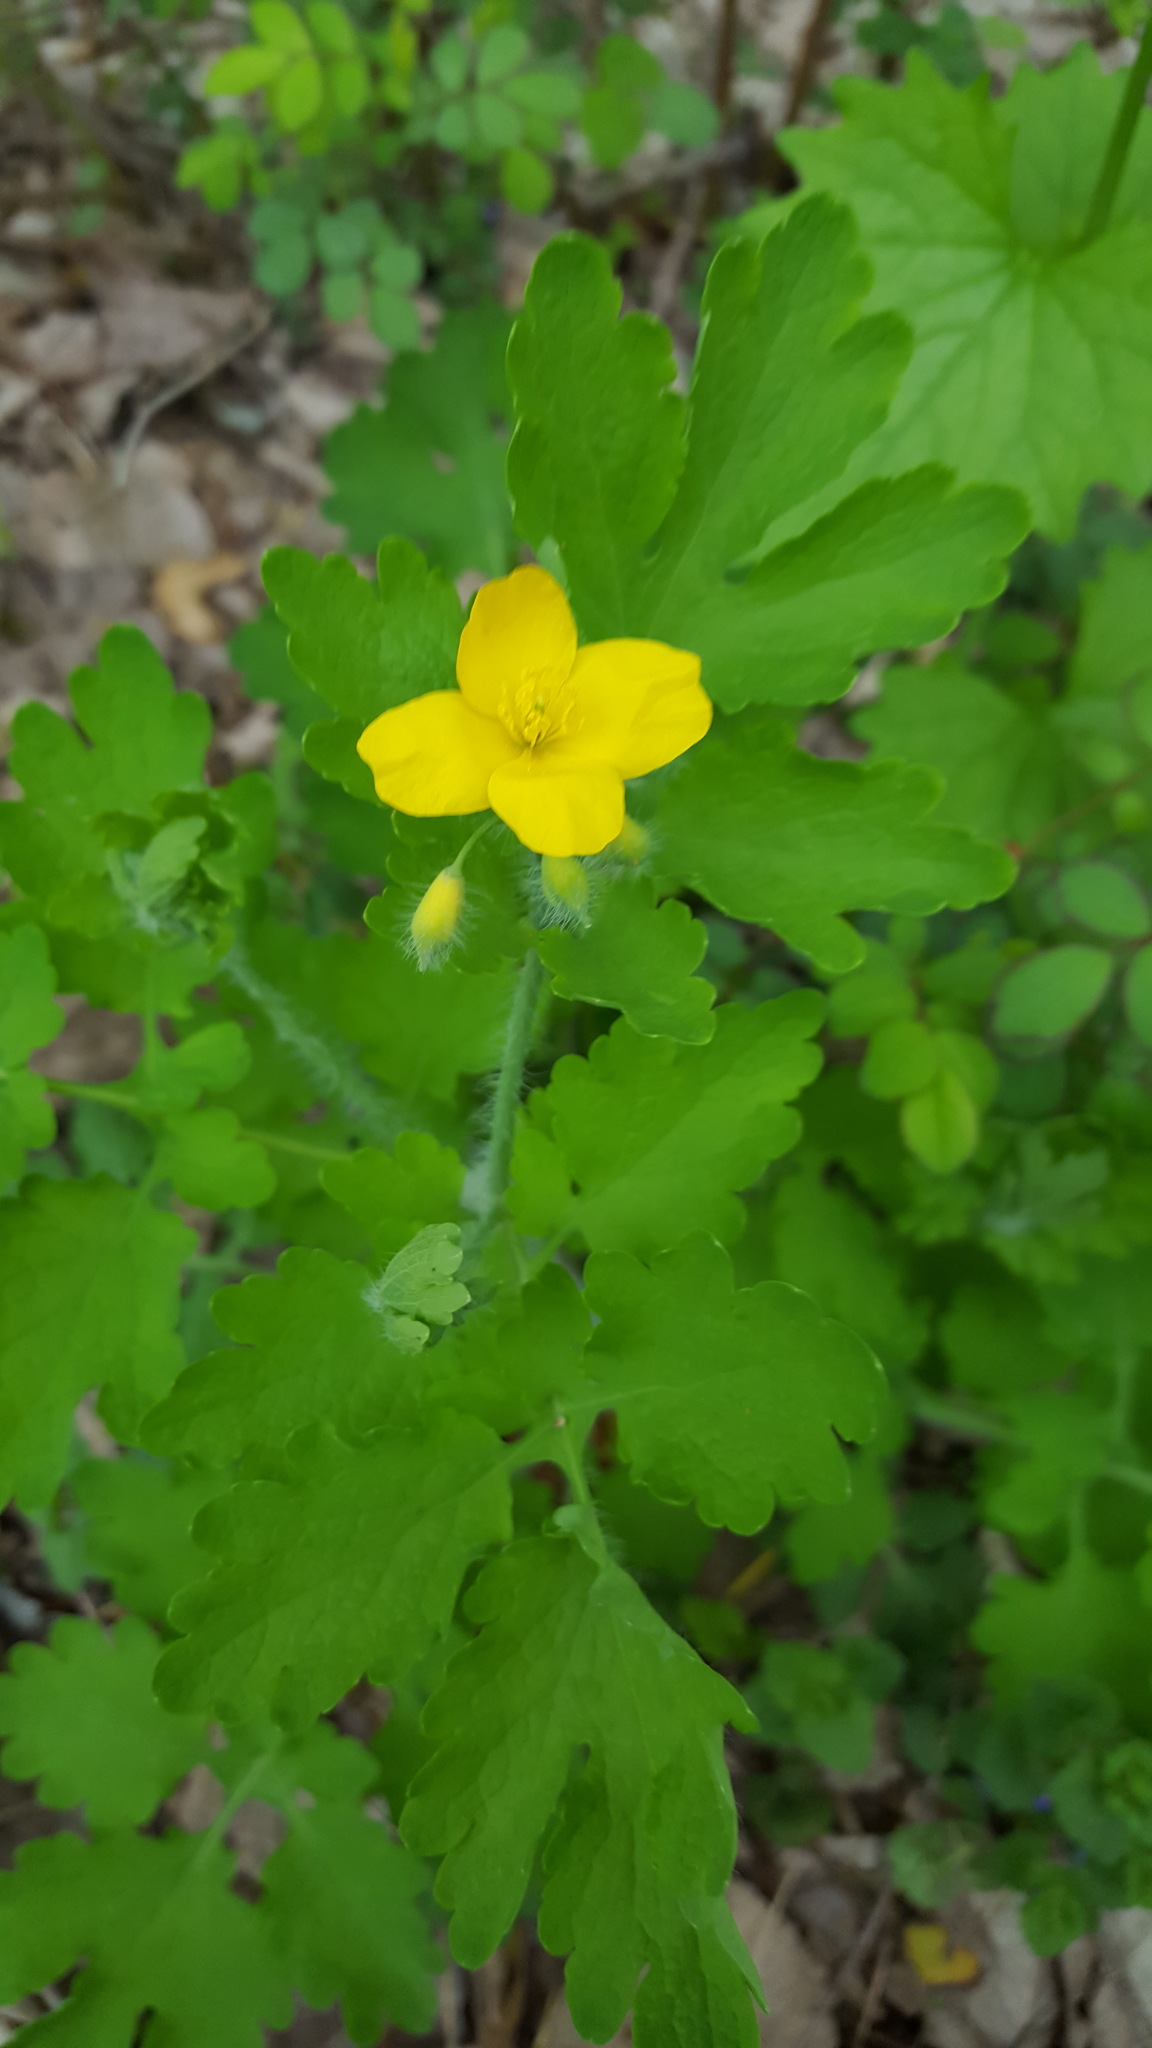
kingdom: Plantae
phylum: Tracheophyta
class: Magnoliopsida
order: Ranunculales
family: Papaveraceae
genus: Chelidonium
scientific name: Chelidonium majus
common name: Greater celandine
